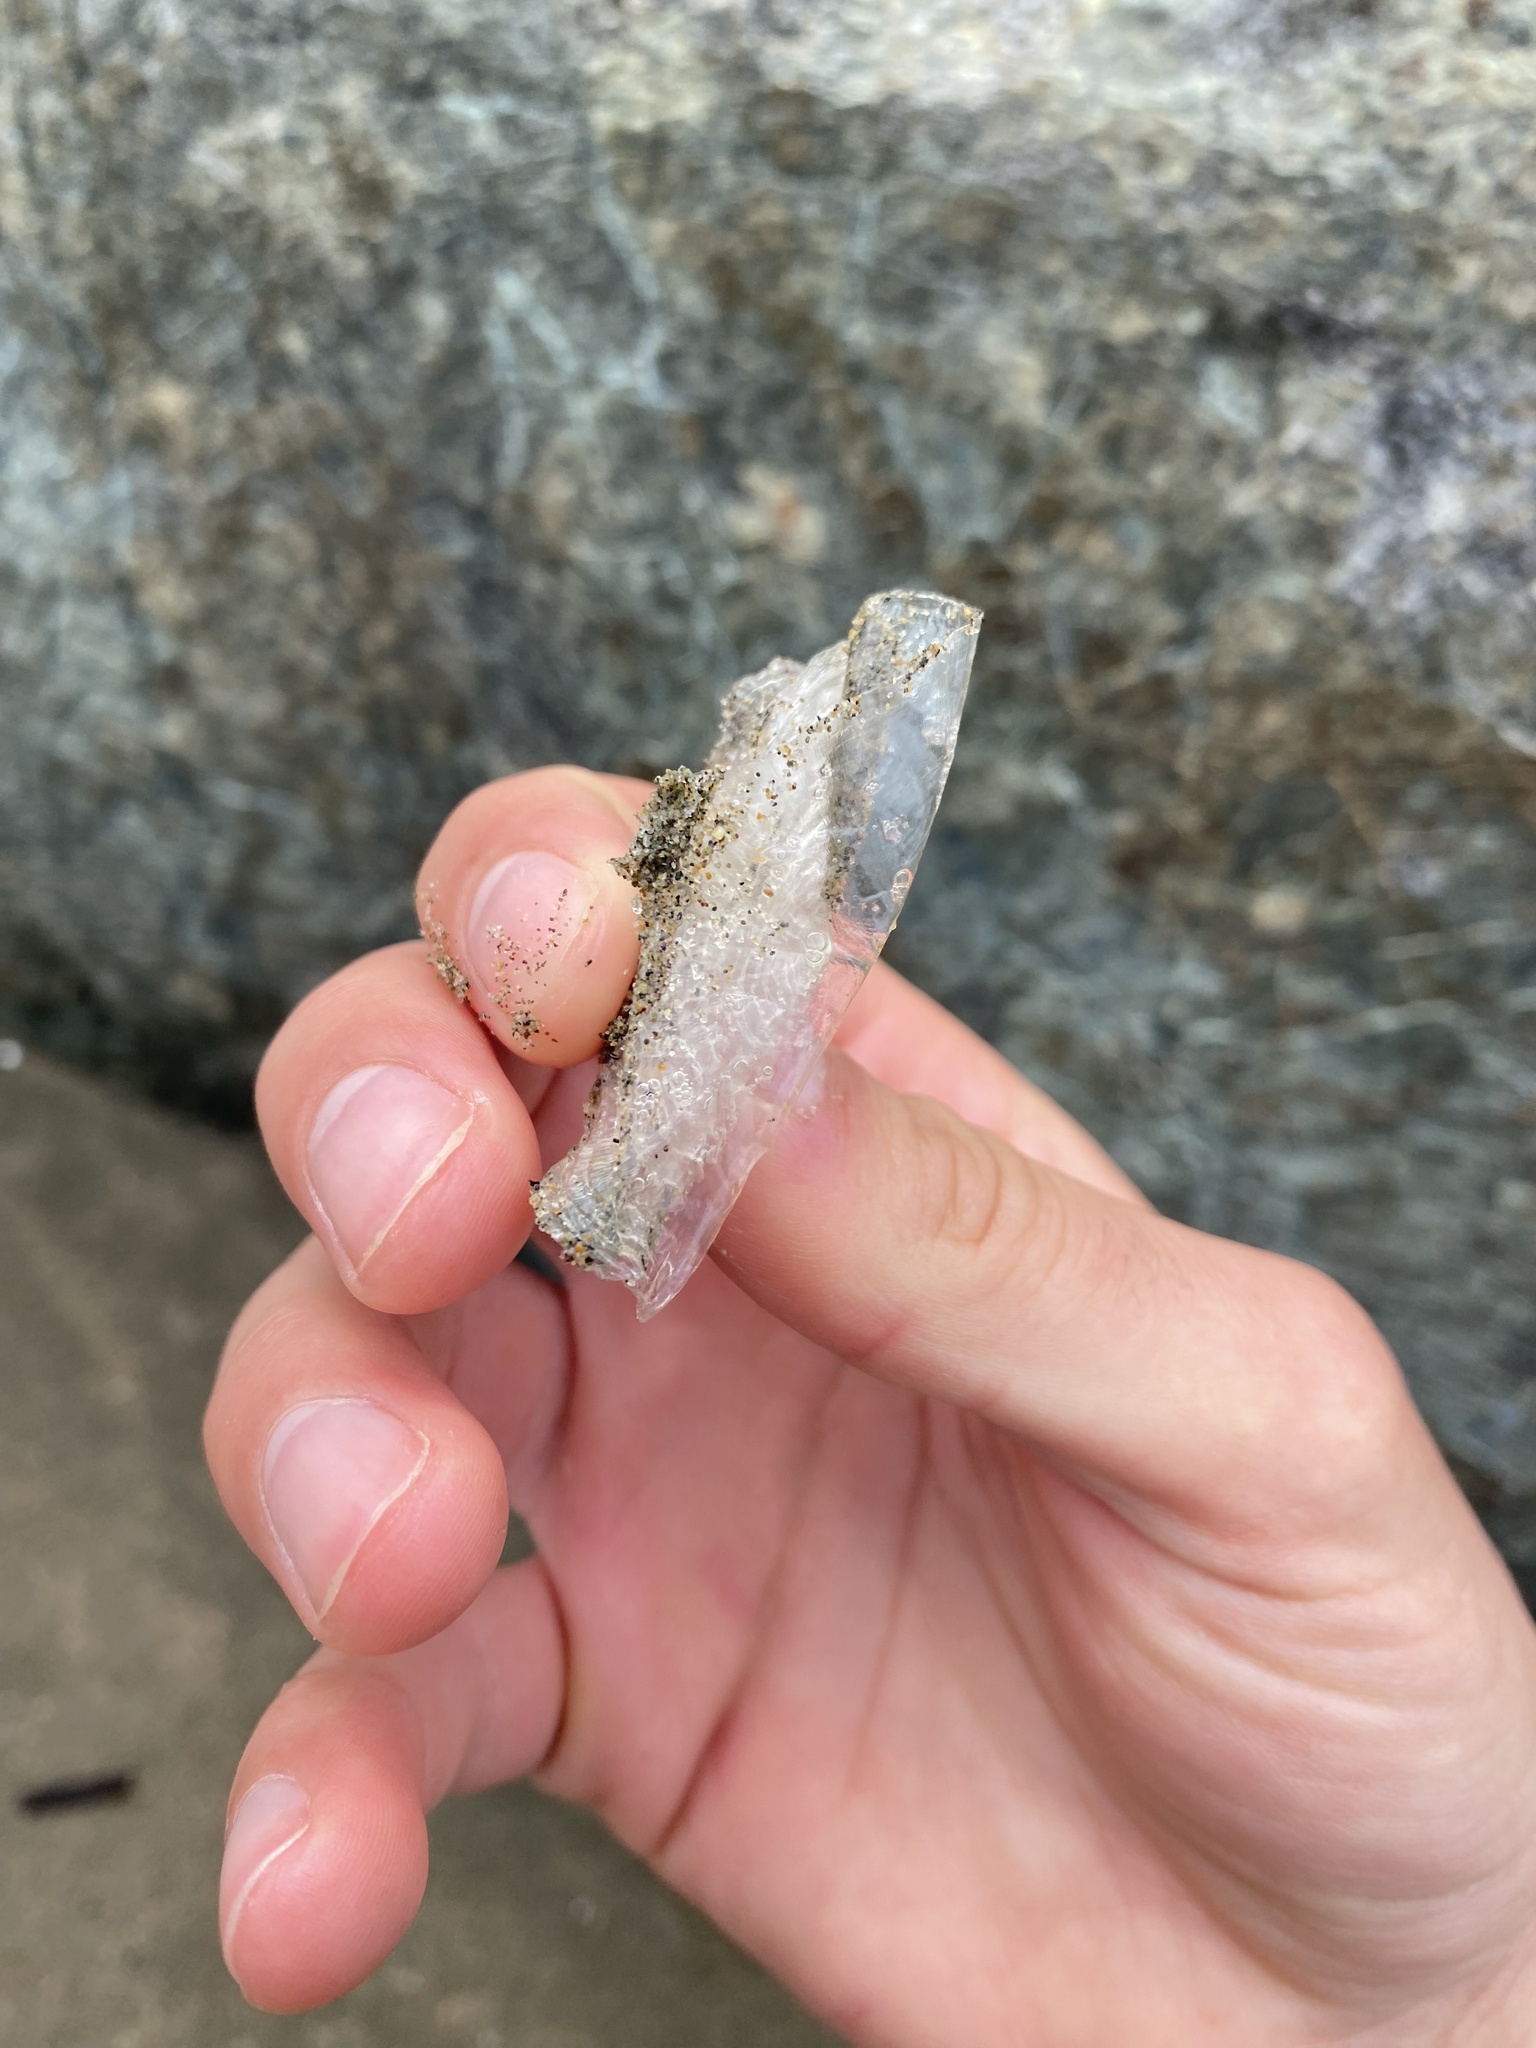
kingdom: Animalia
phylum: Cnidaria
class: Hydrozoa
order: Anthoathecata
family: Porpitidae
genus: Velella
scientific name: Velella velella
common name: By-the-wind-sailor
